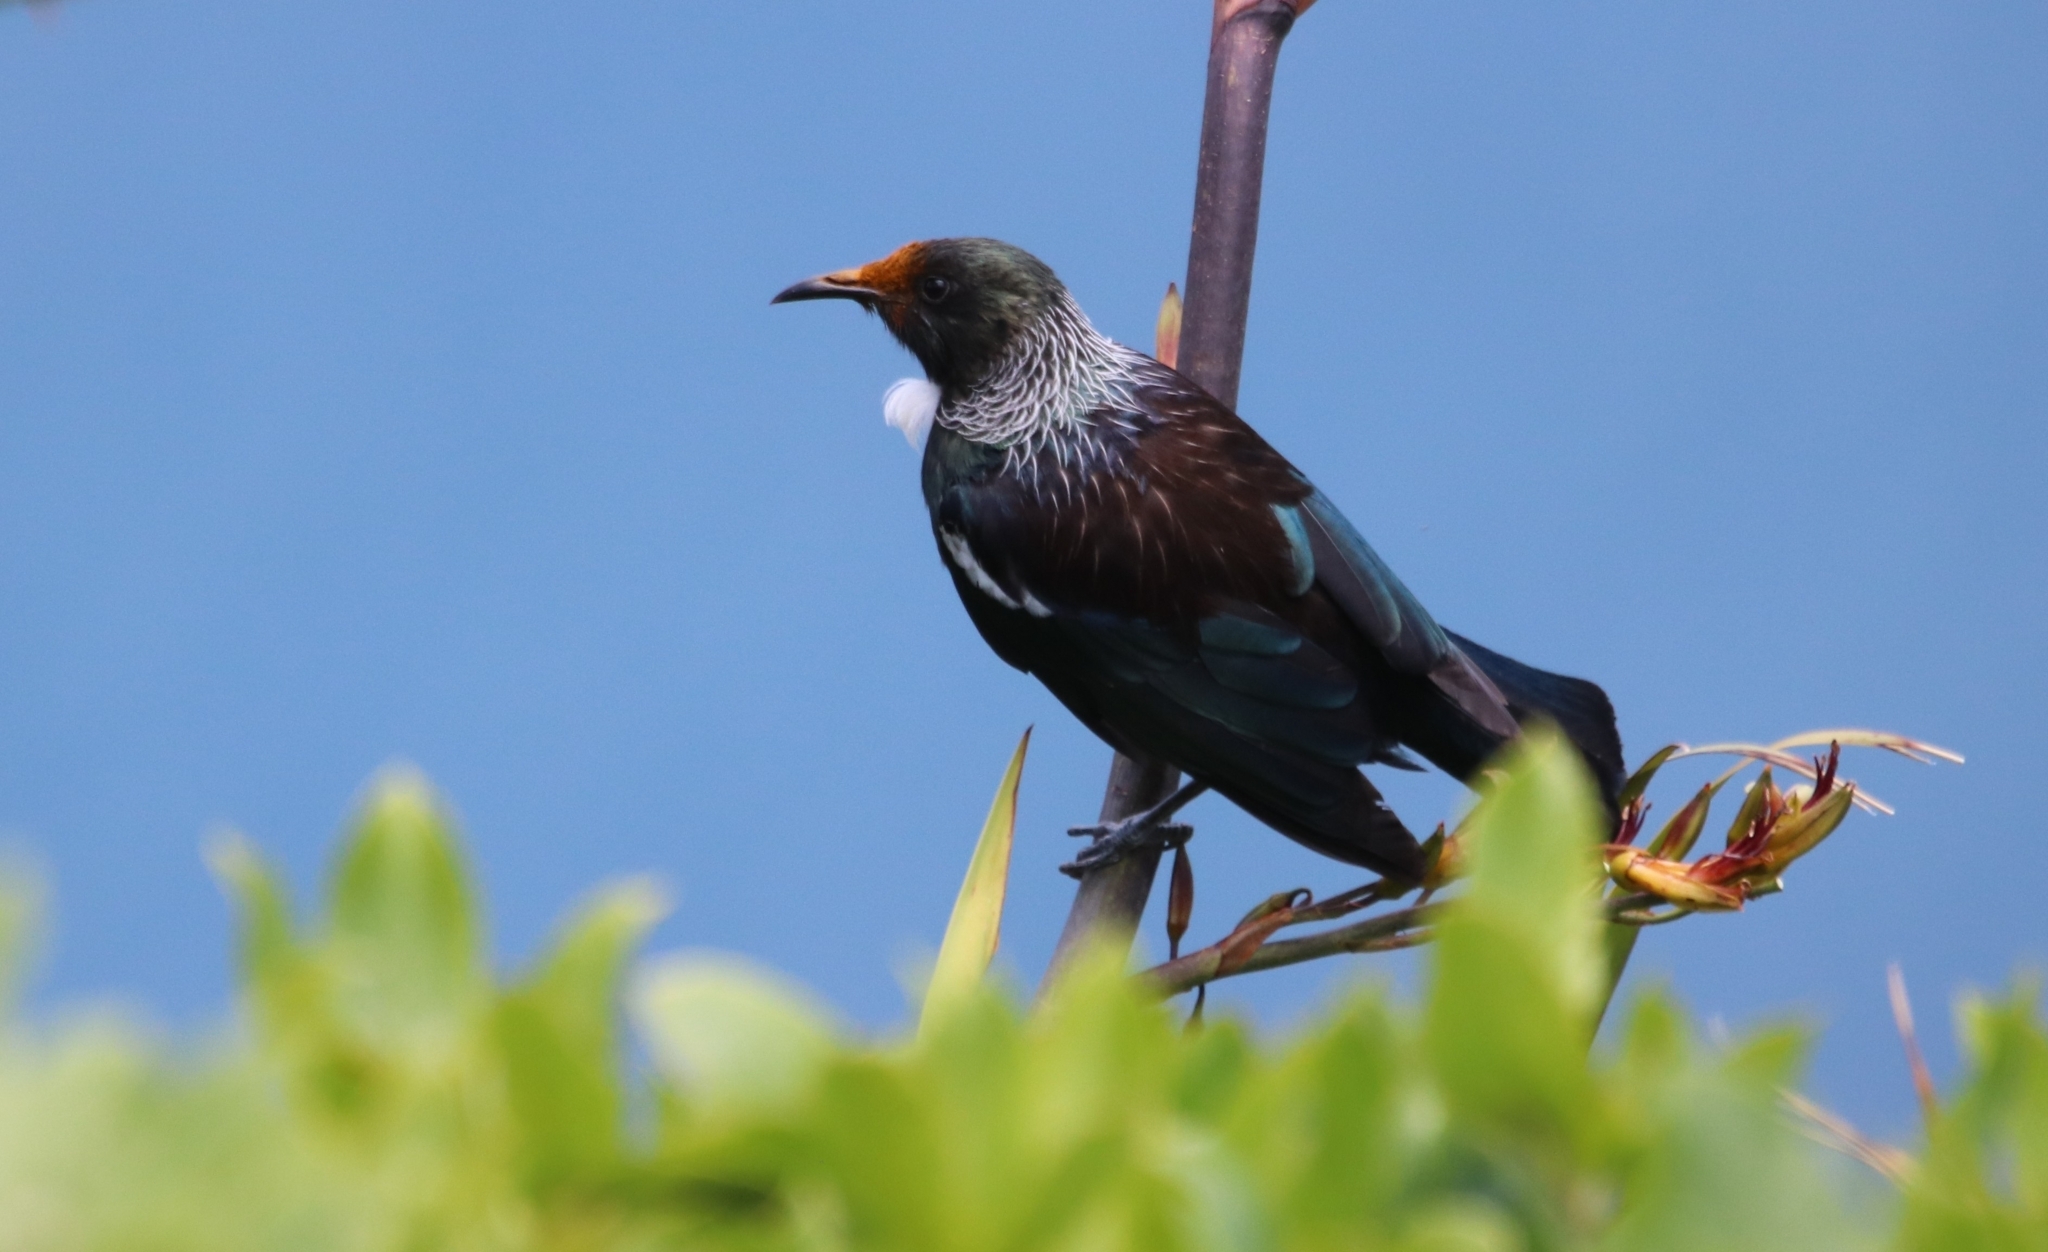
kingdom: Animalia
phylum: Chordata
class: Aves
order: Passeriformes
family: Meliphagidae
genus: Prosthemadera
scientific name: Prosthemadera novaeseelandiae
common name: Tui
